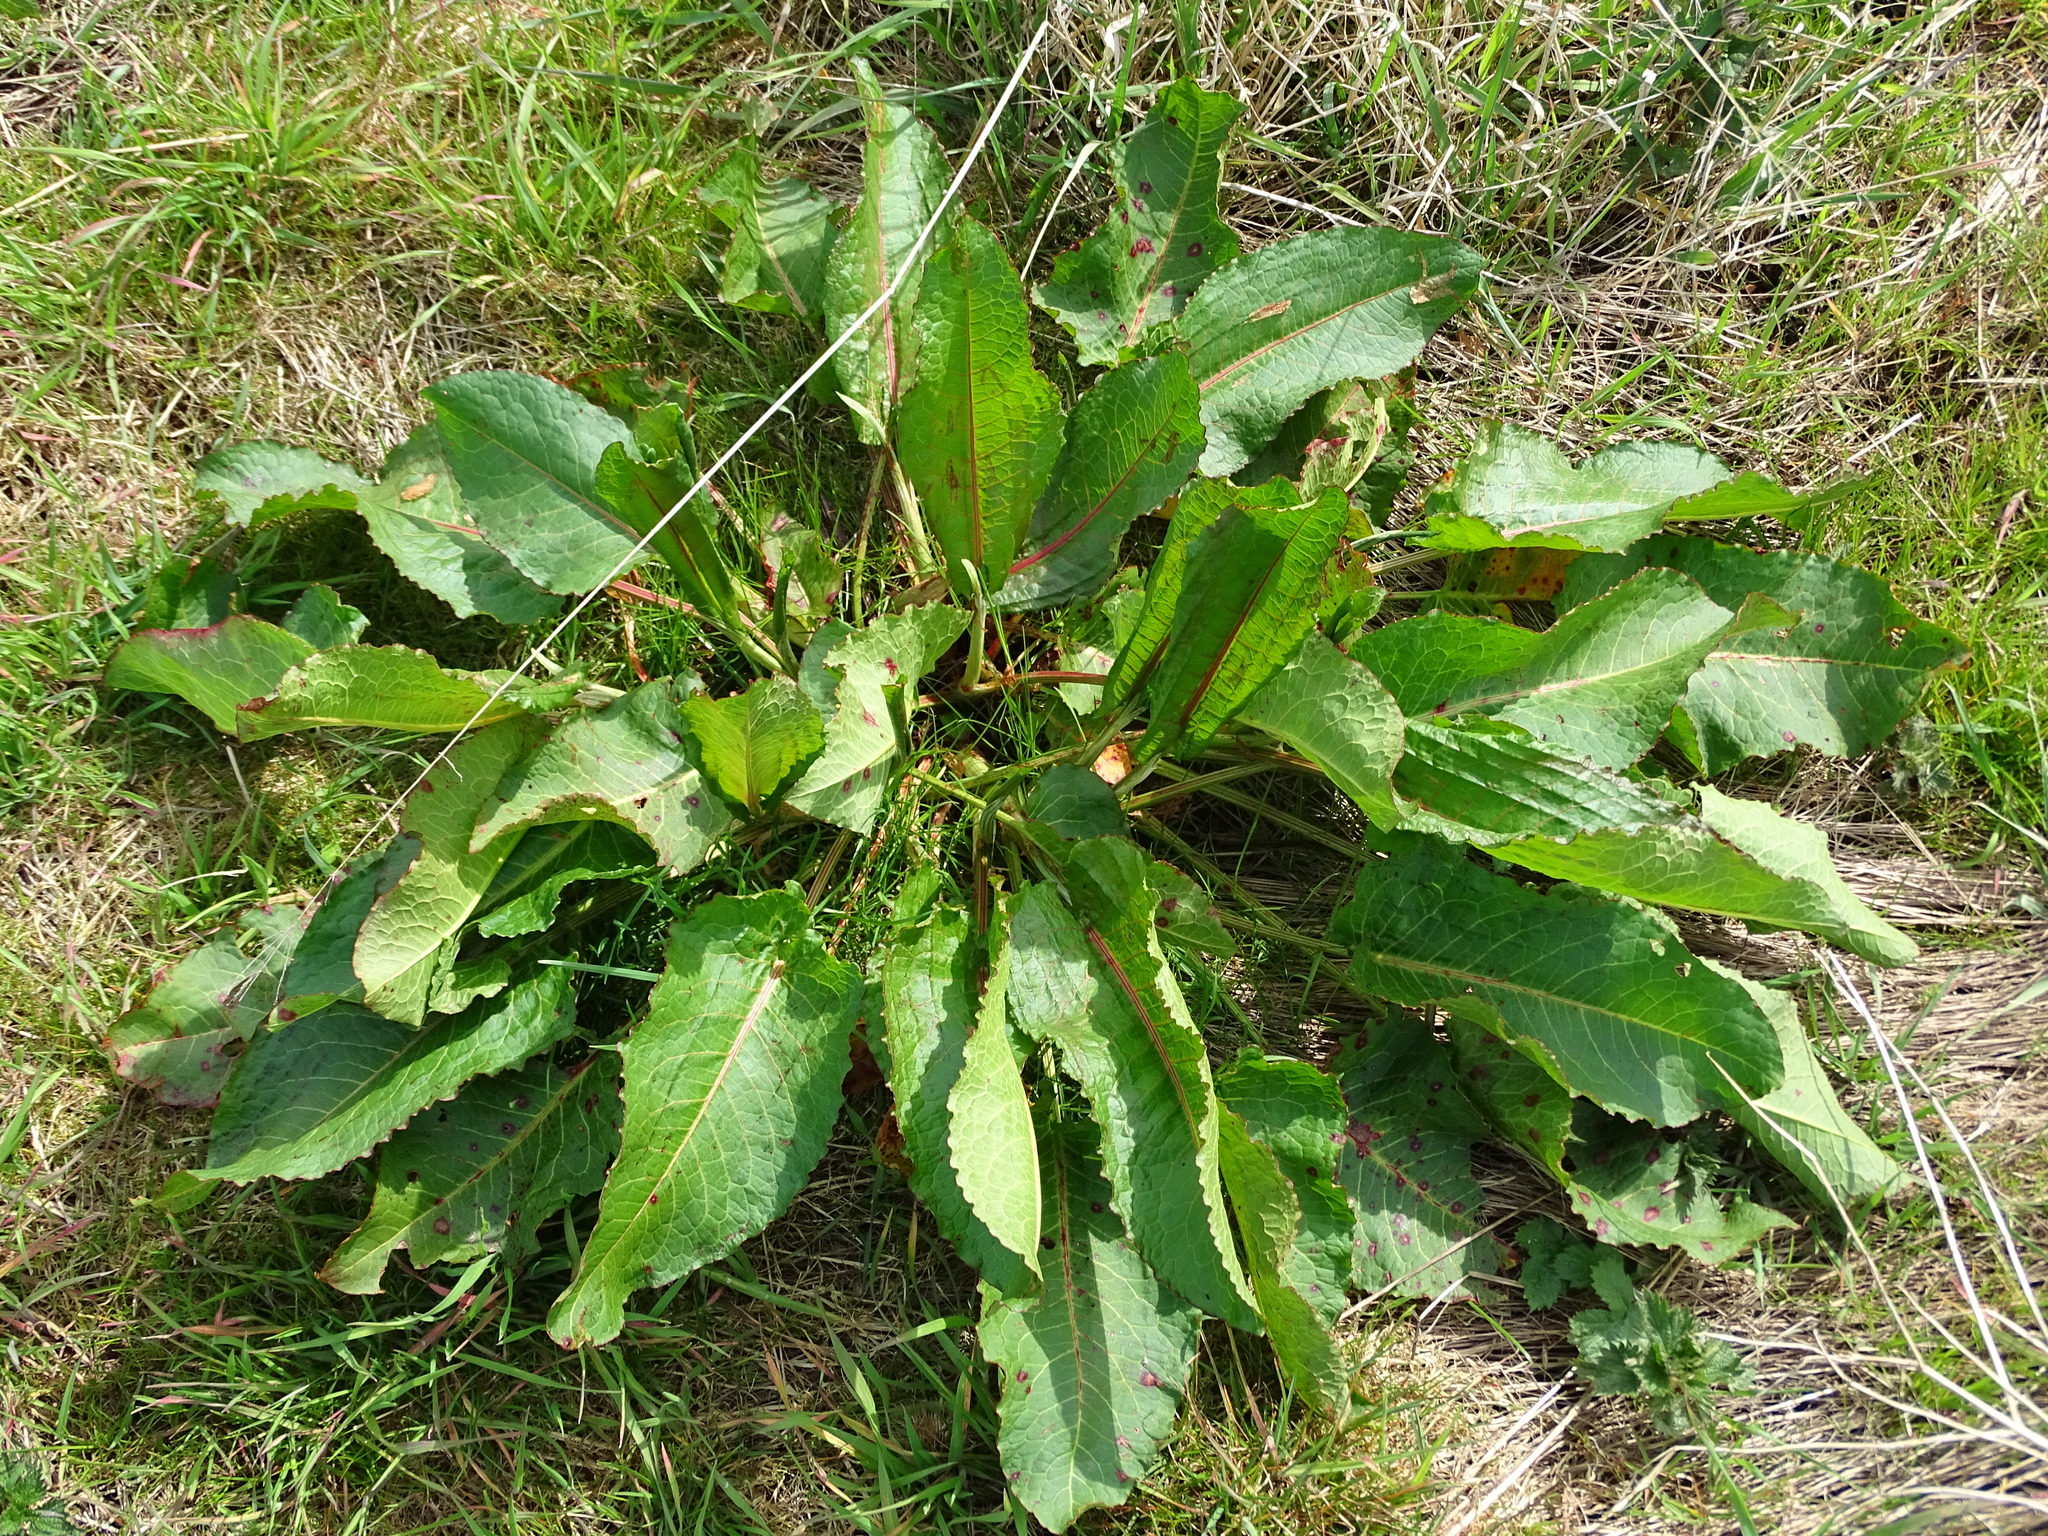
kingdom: Plantae
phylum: Tracheophyta
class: Magnoliopsida
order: Caryophyllales
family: Polygonaceae
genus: Rumex
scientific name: Rumex obtusifolius
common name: Bitter dock
